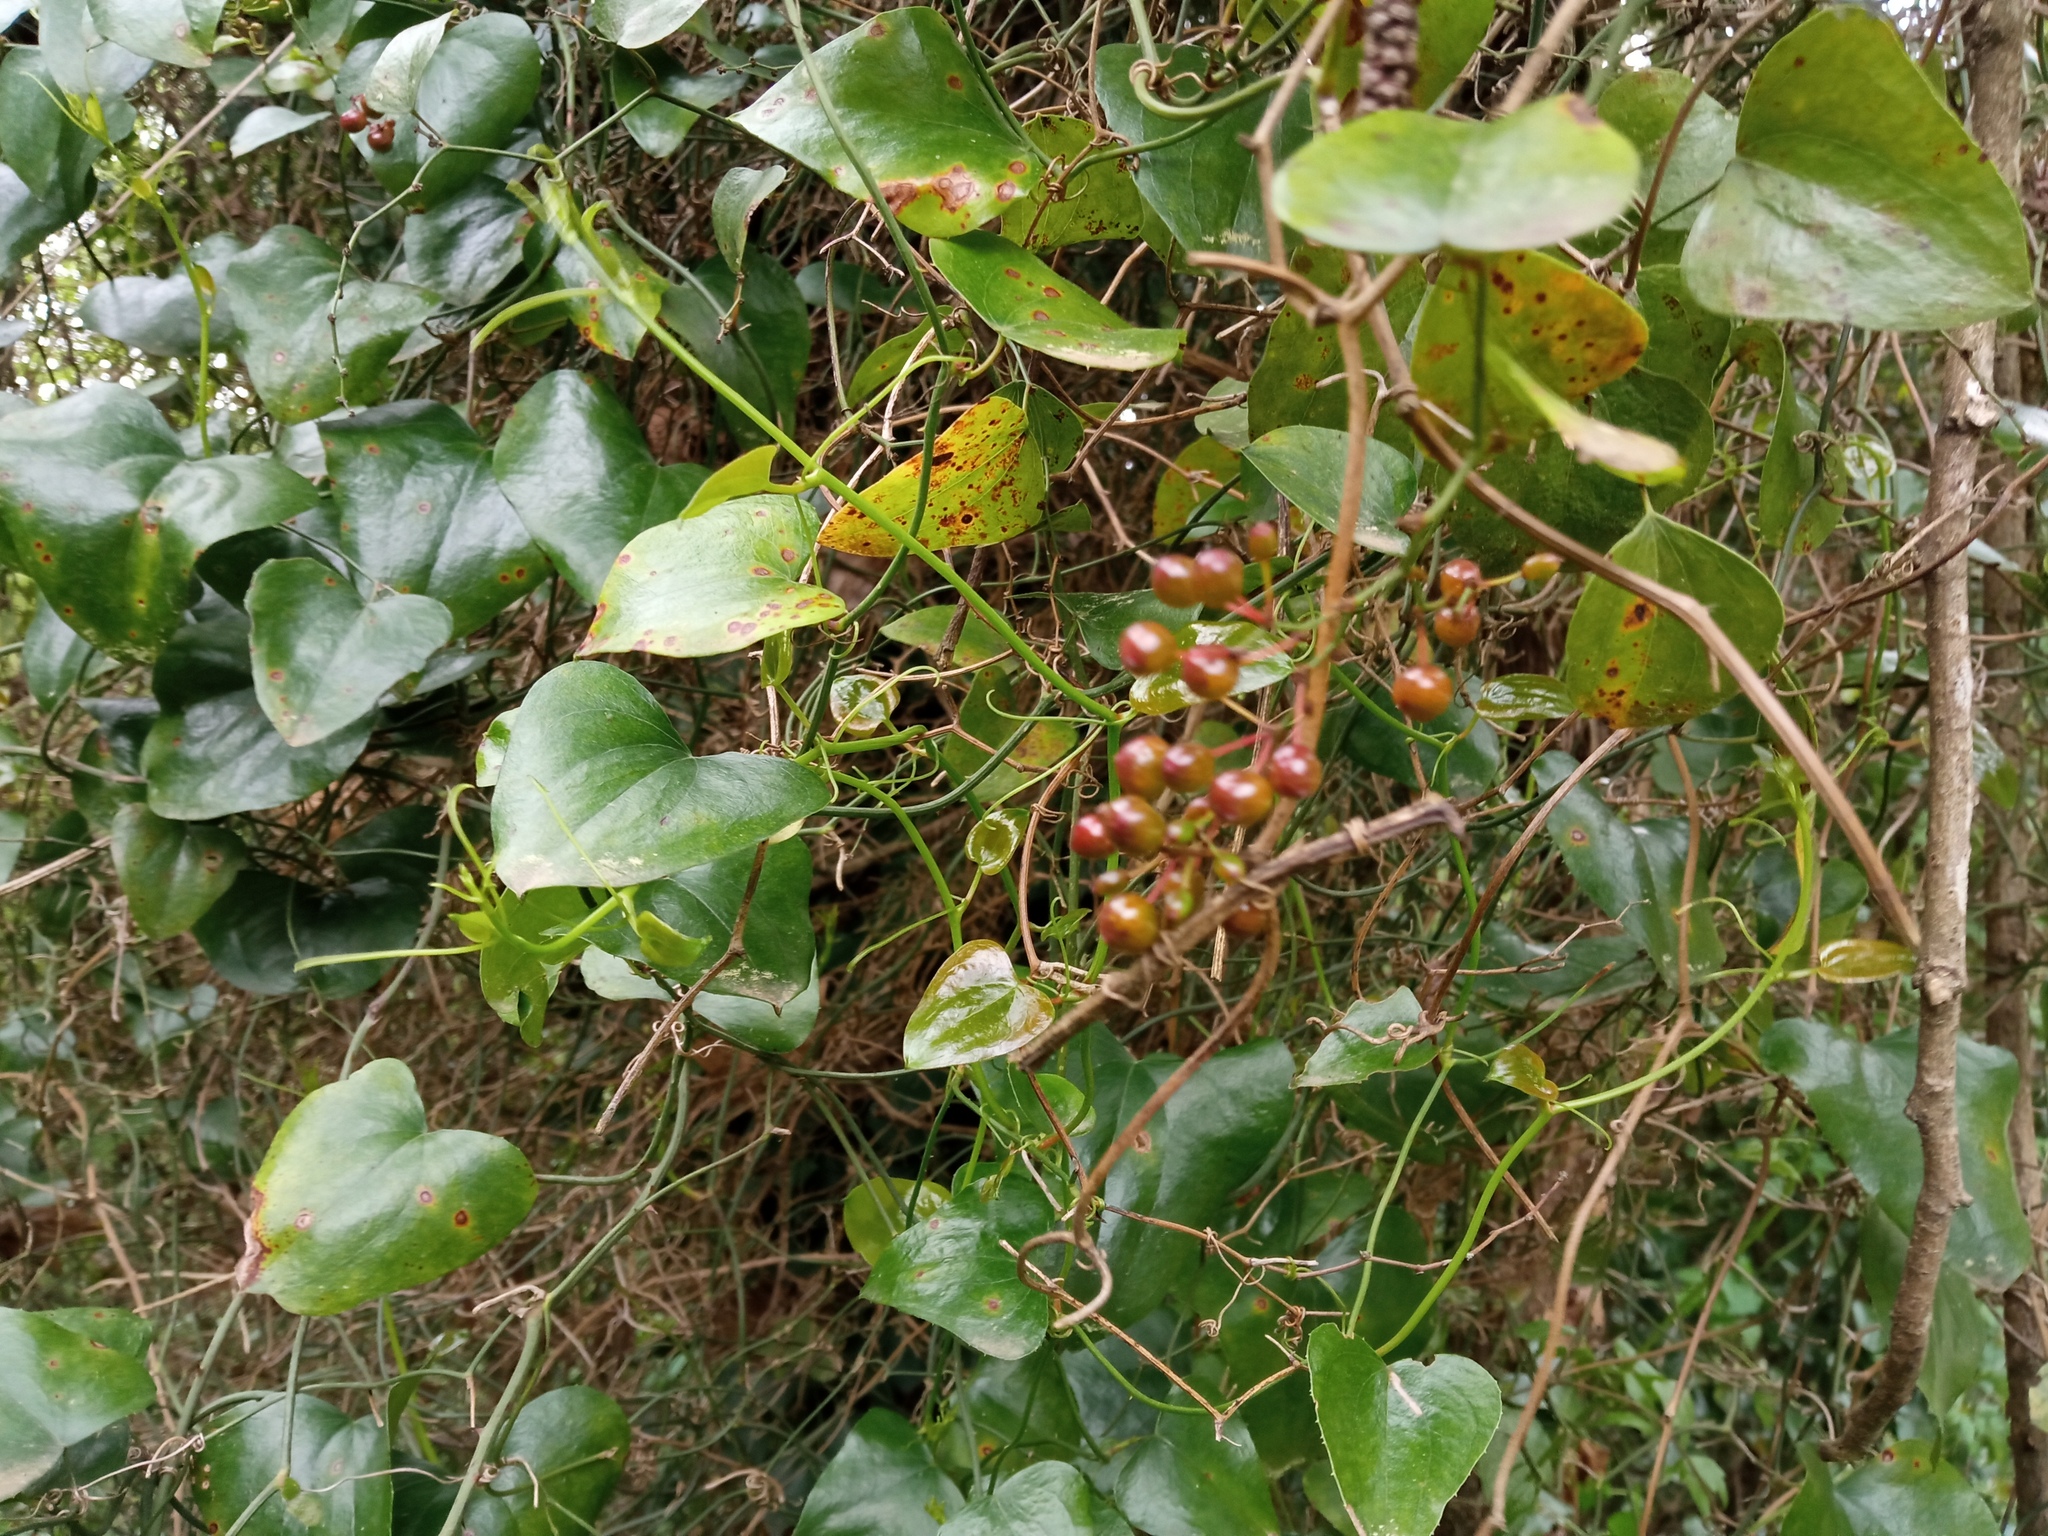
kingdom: Plantae
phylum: Tracheophyta
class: Liliopsida
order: Liliales
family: Smilacaceae
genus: Smilax
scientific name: Smilax aspera
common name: Common smilax
